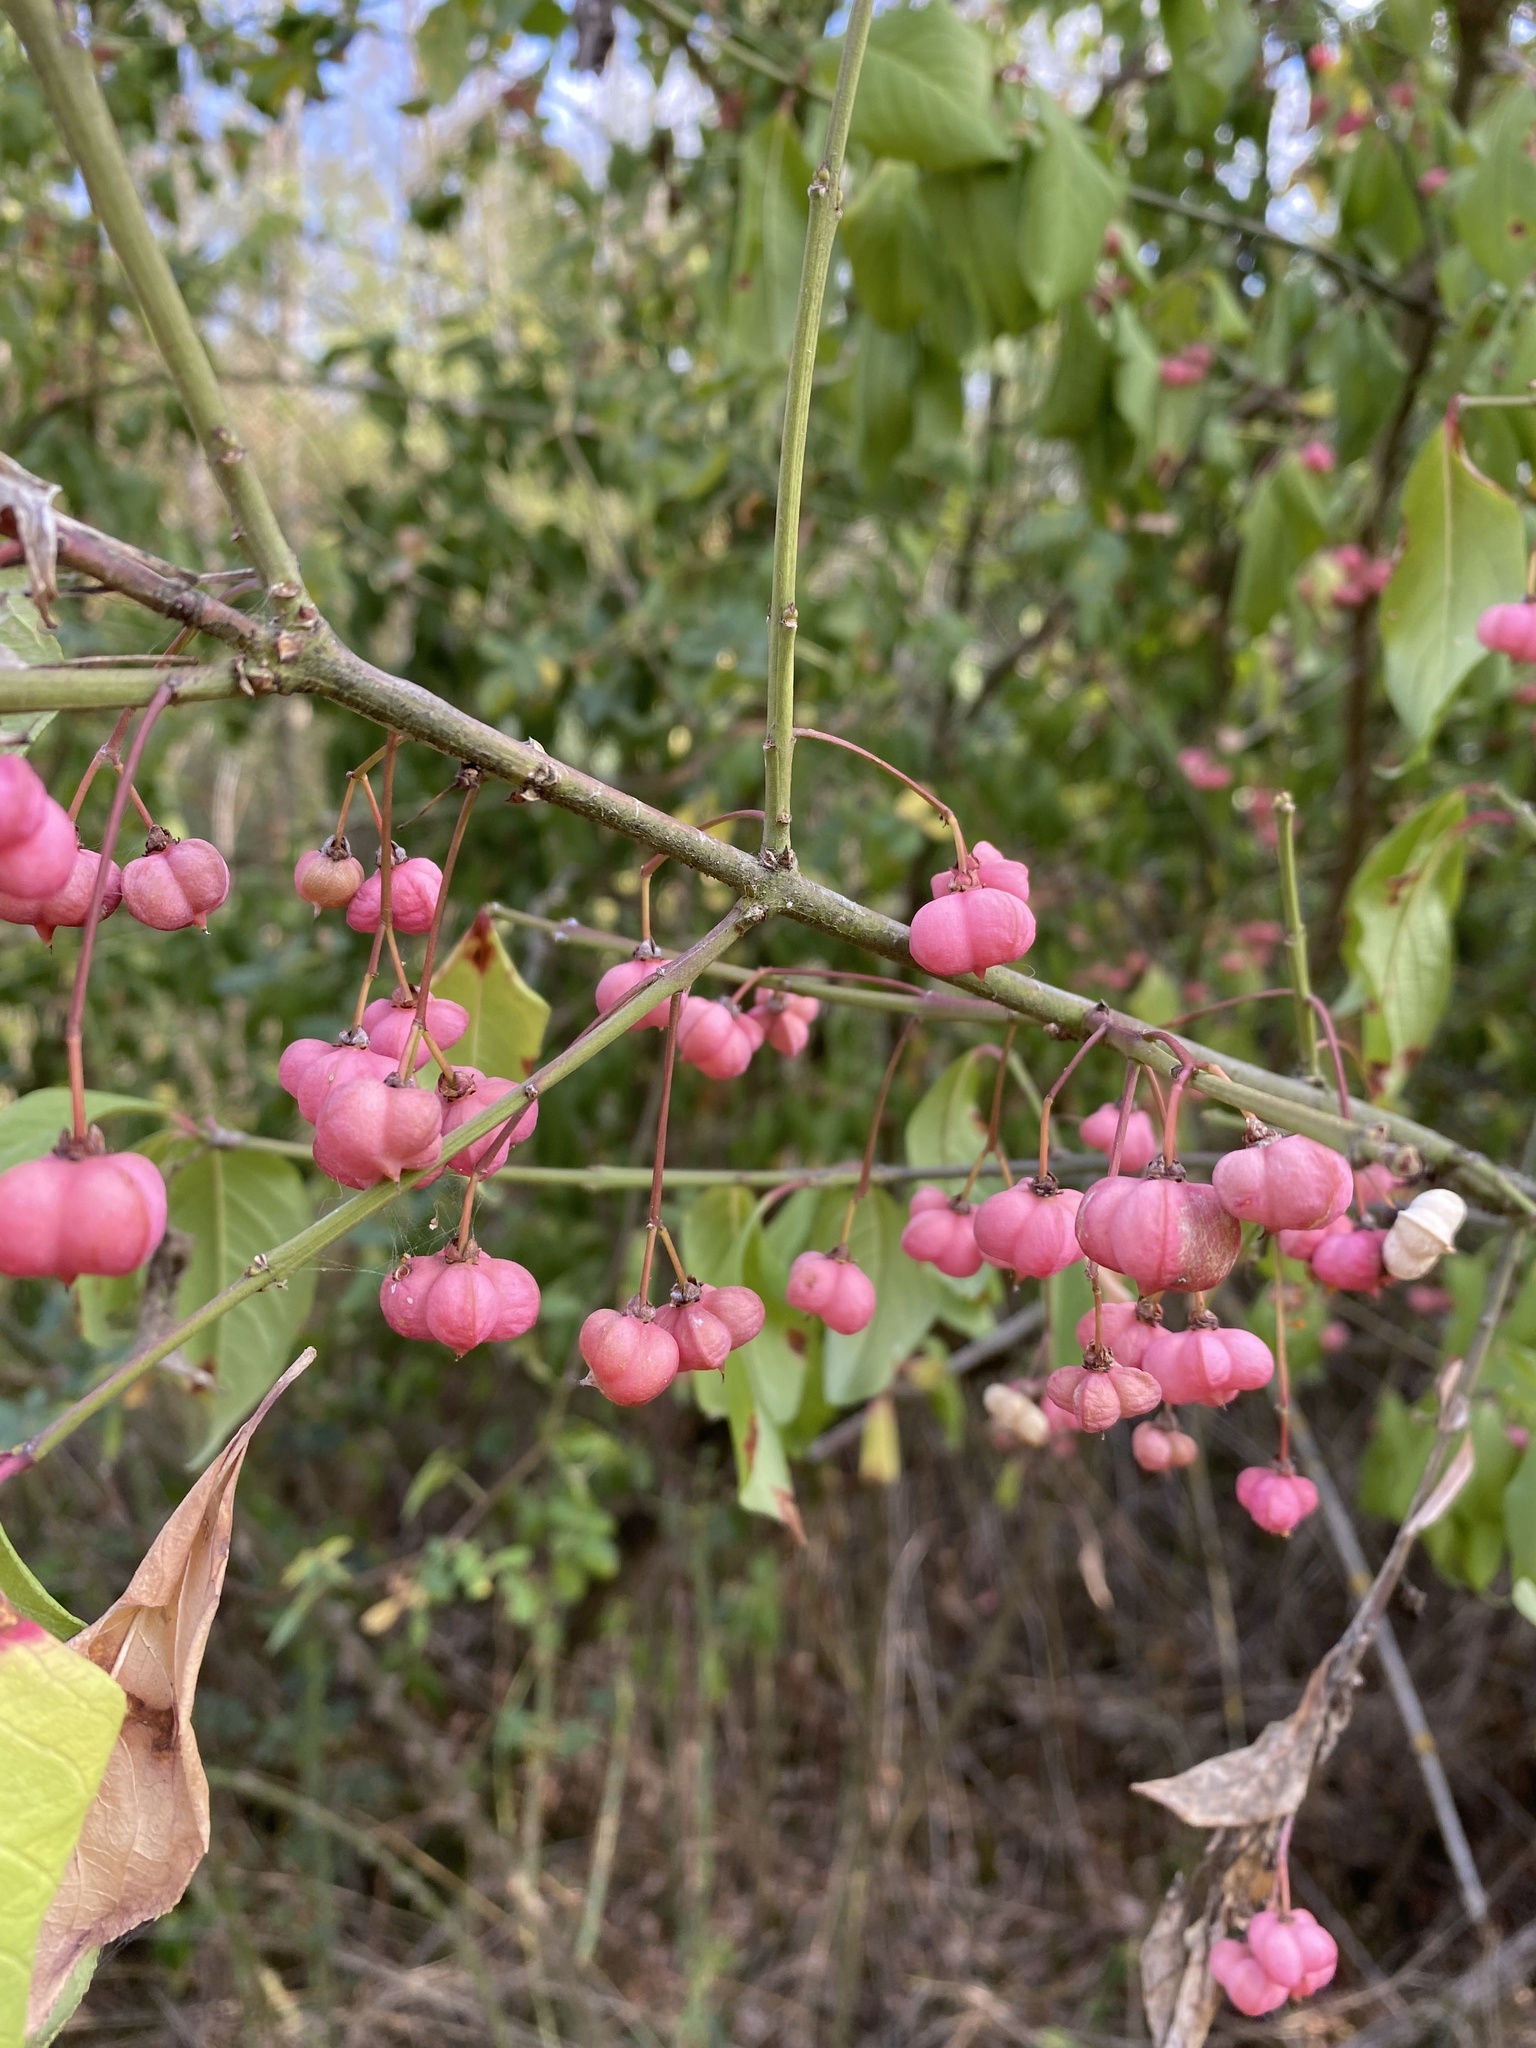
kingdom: Plantae
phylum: Tracheophyta
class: Magnoliopsida
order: Celastrales
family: Celastraceae
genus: Euonymus
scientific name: Euonymus europaeus
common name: Spindle
